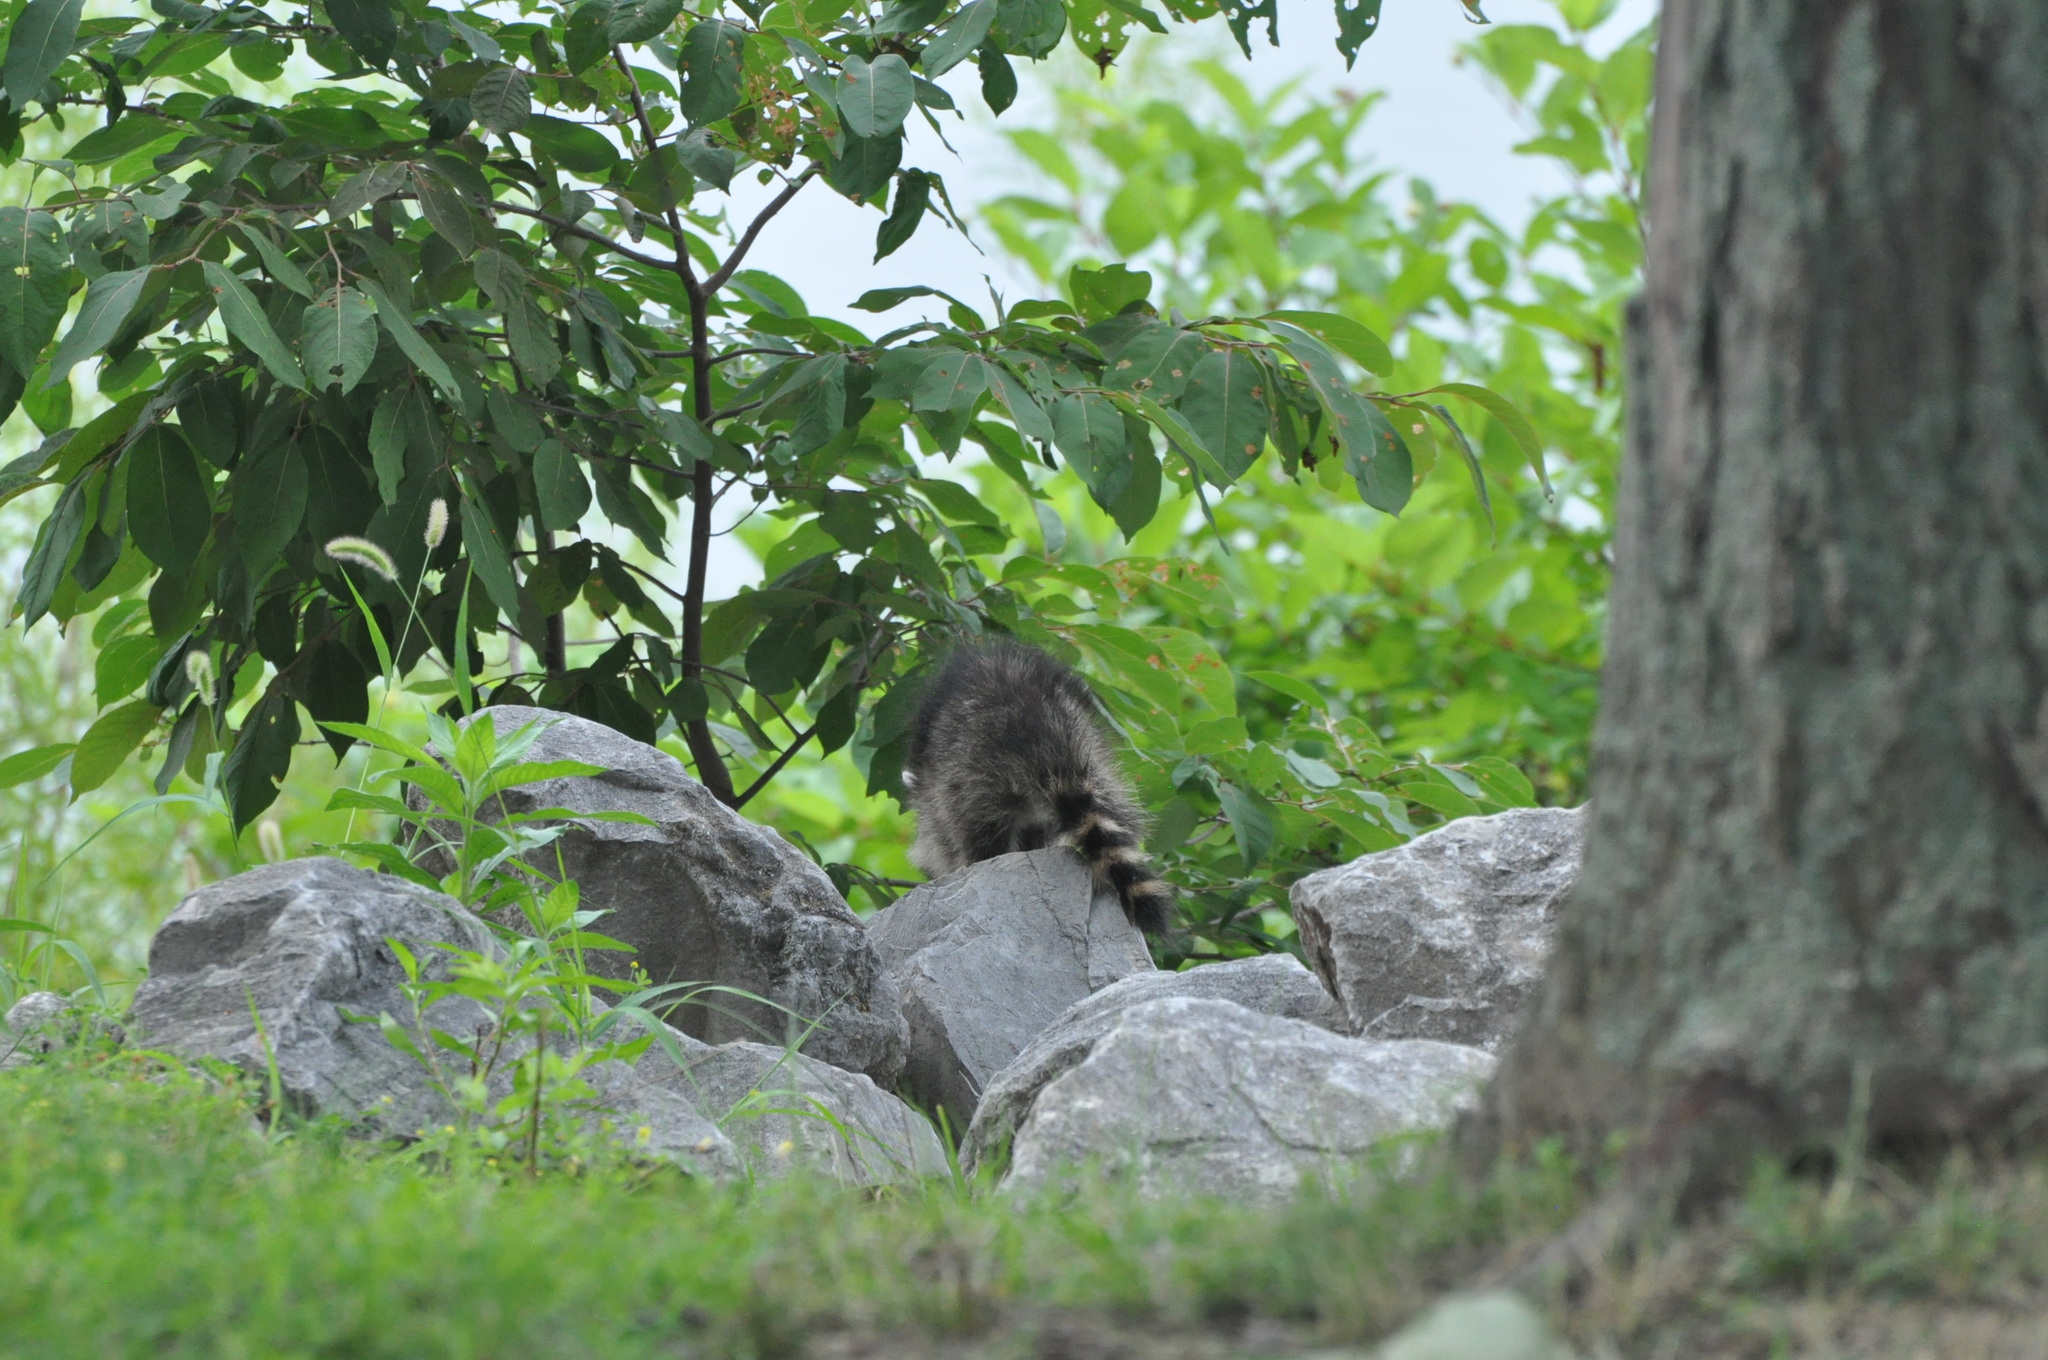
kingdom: Animalia
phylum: Chordata
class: Mammalia
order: Carnivora
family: Procyonidae
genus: Procyon
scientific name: Procyon lotor
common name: Raccoon
